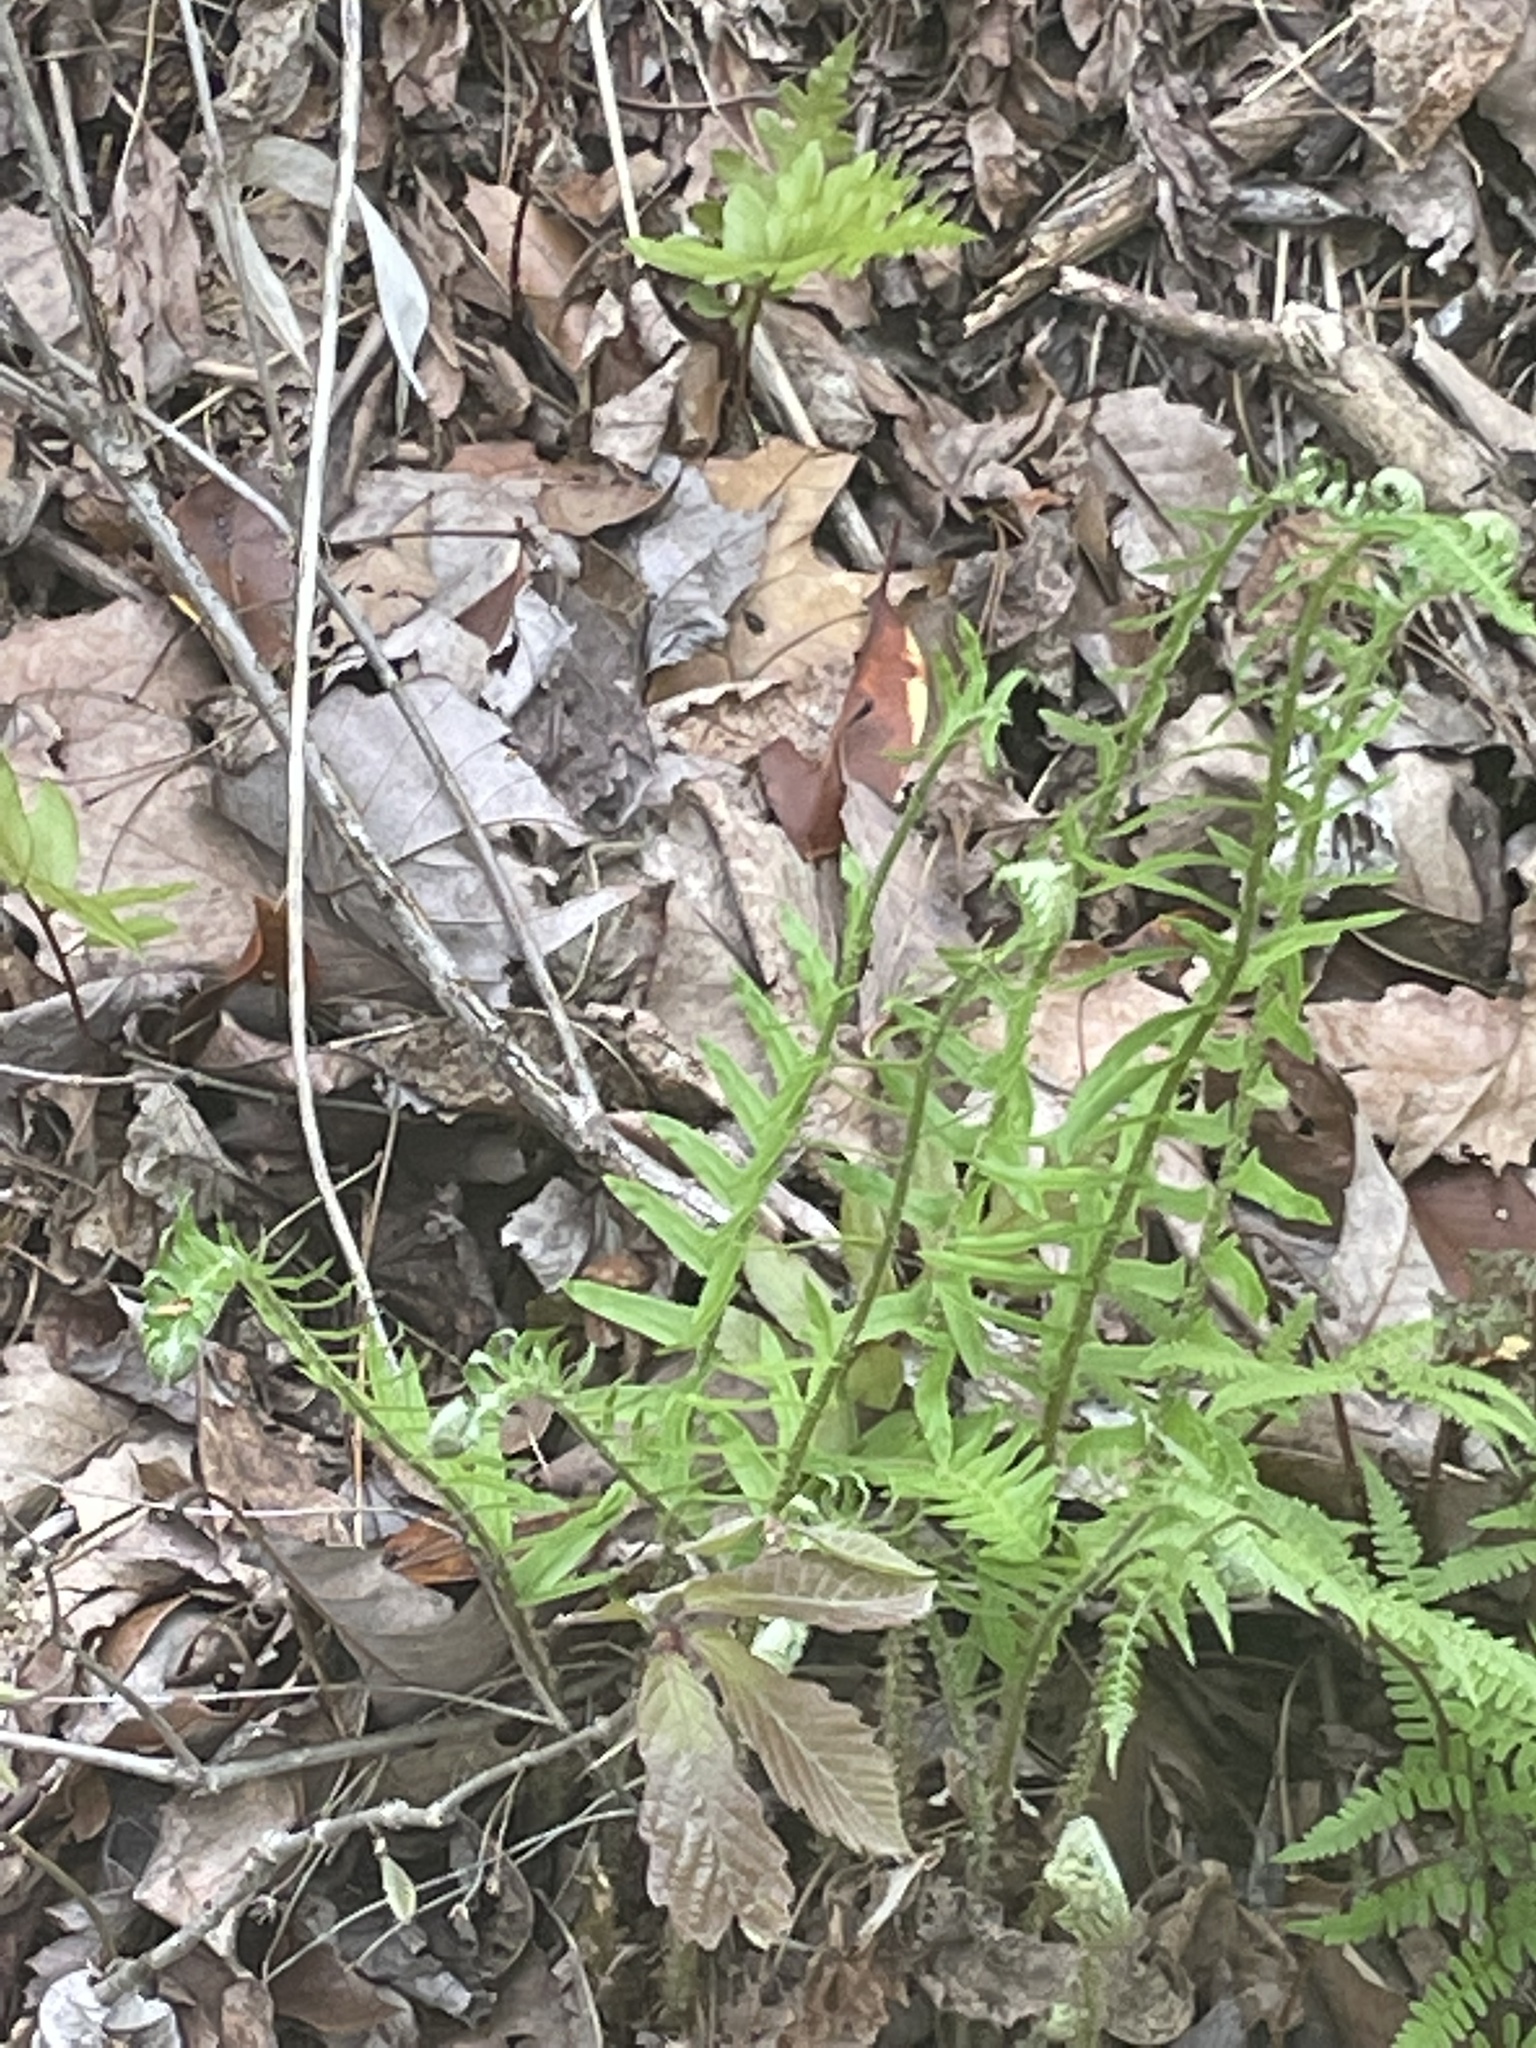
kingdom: Plantae
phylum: Tracheophyta
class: Polypodiopsida
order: Polypodiales
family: Dryopteridaceae
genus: Polystichum
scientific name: Polystichum acrostichoides
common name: Christmas fern
